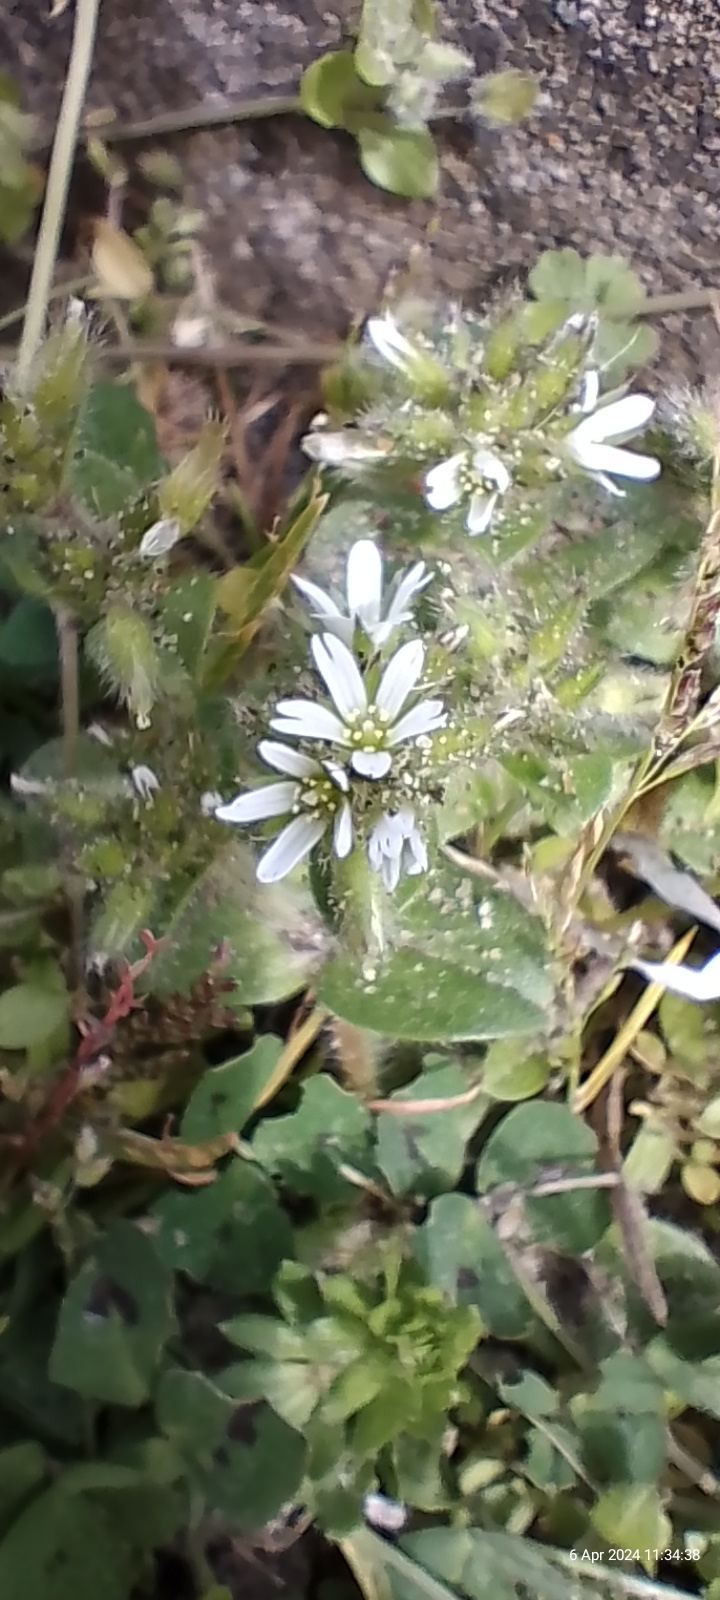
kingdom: Plantae
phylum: Tracheophyta
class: Magnoliopsida
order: Caryophyllales
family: Caryophyllaceae
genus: Cerastium
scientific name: Cerastium glomeratum
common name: Sticky chickweed
